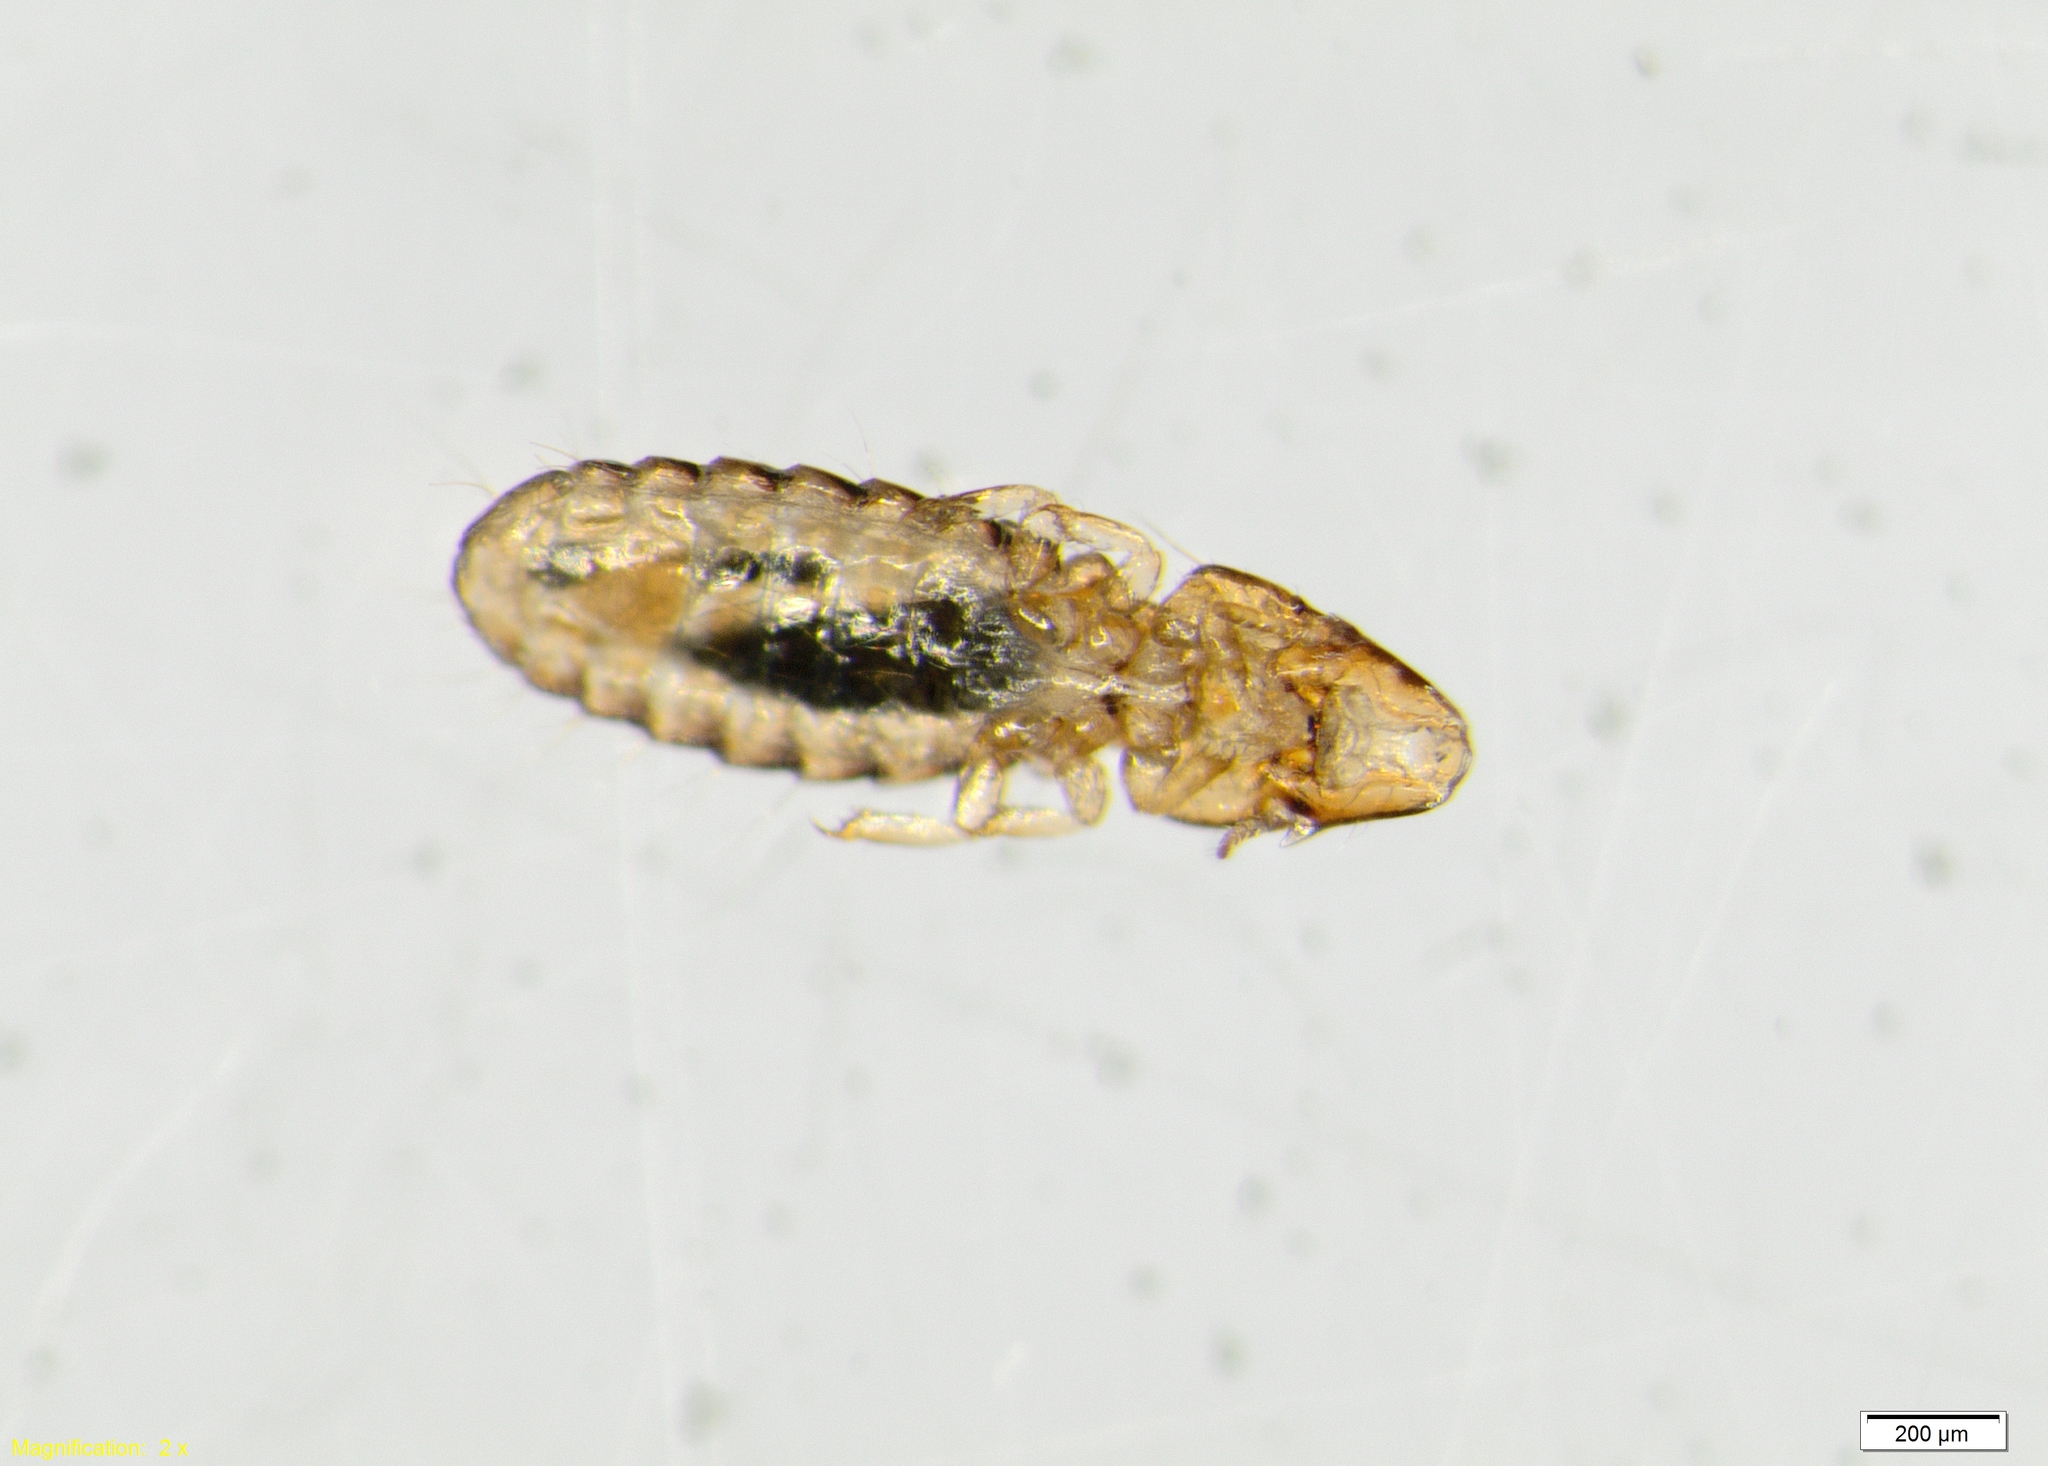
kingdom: Animalia
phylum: Arthropoda
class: Insecta
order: Psocodea
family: Philopteridae
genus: Rallicola
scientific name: Rallicola harrisoni
